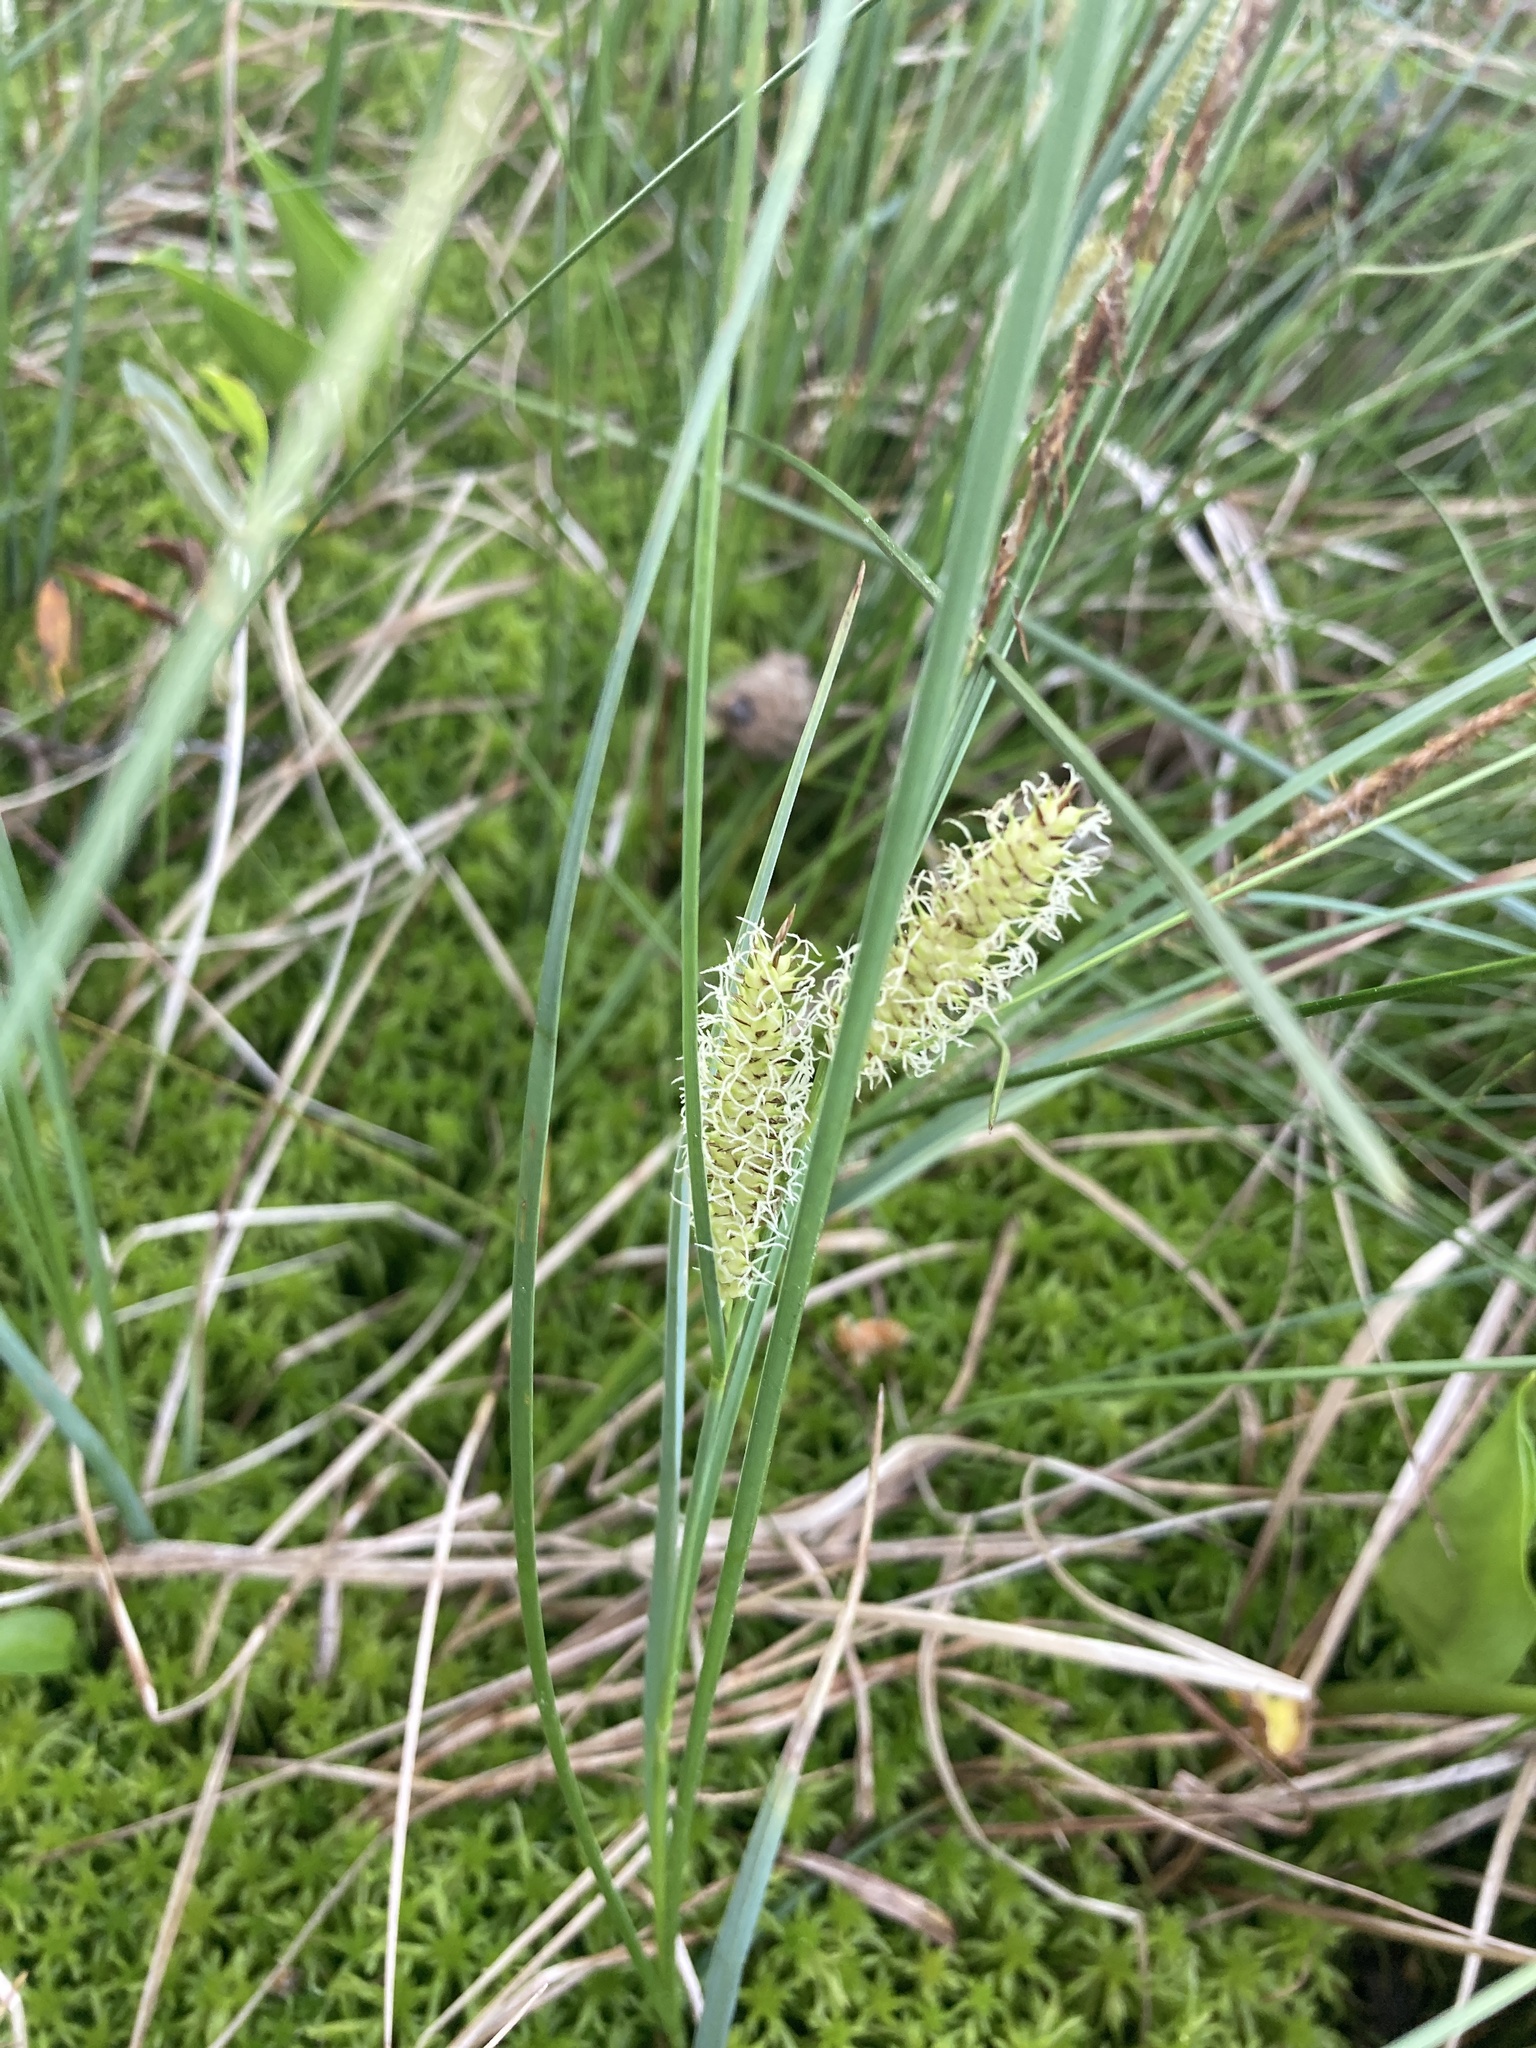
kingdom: Plantae
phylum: Tracheophyta
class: Liliopsida
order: Poales
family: Cyperaceae
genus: Carex
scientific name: Carex rostrata
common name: Bottle sedge
